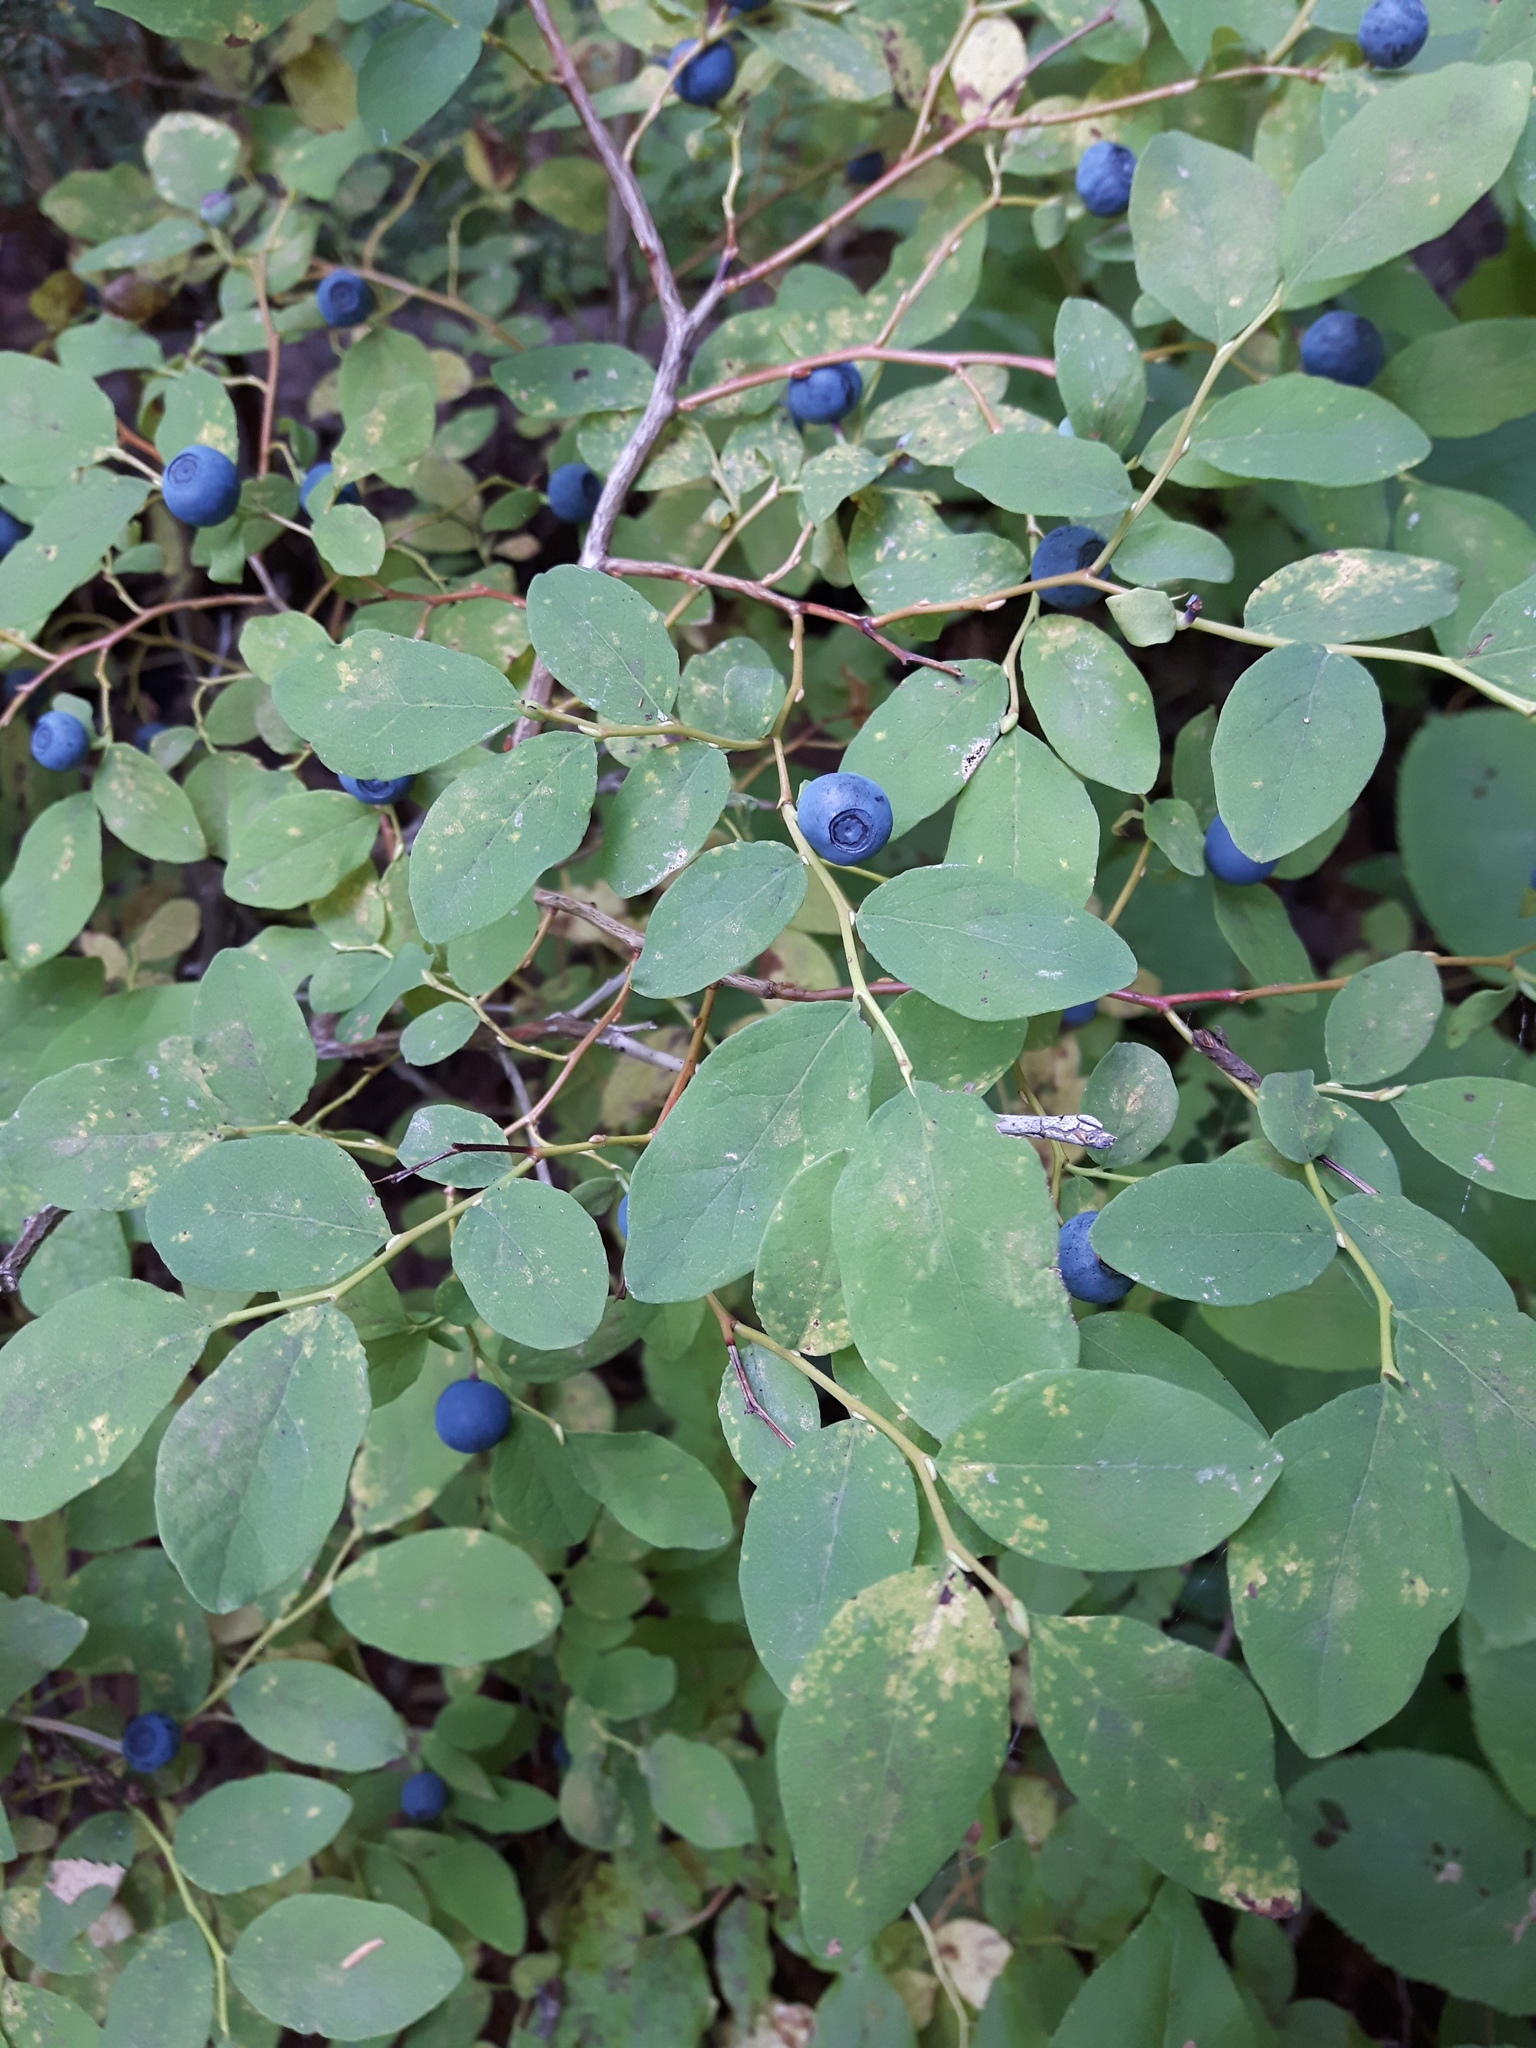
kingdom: Plantae
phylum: Tracheophyta
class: Magnoliopsida
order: Ericales
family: Ericaceae
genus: Vaccinium
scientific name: Vaccinium ovalifolium
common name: Early blueberry
